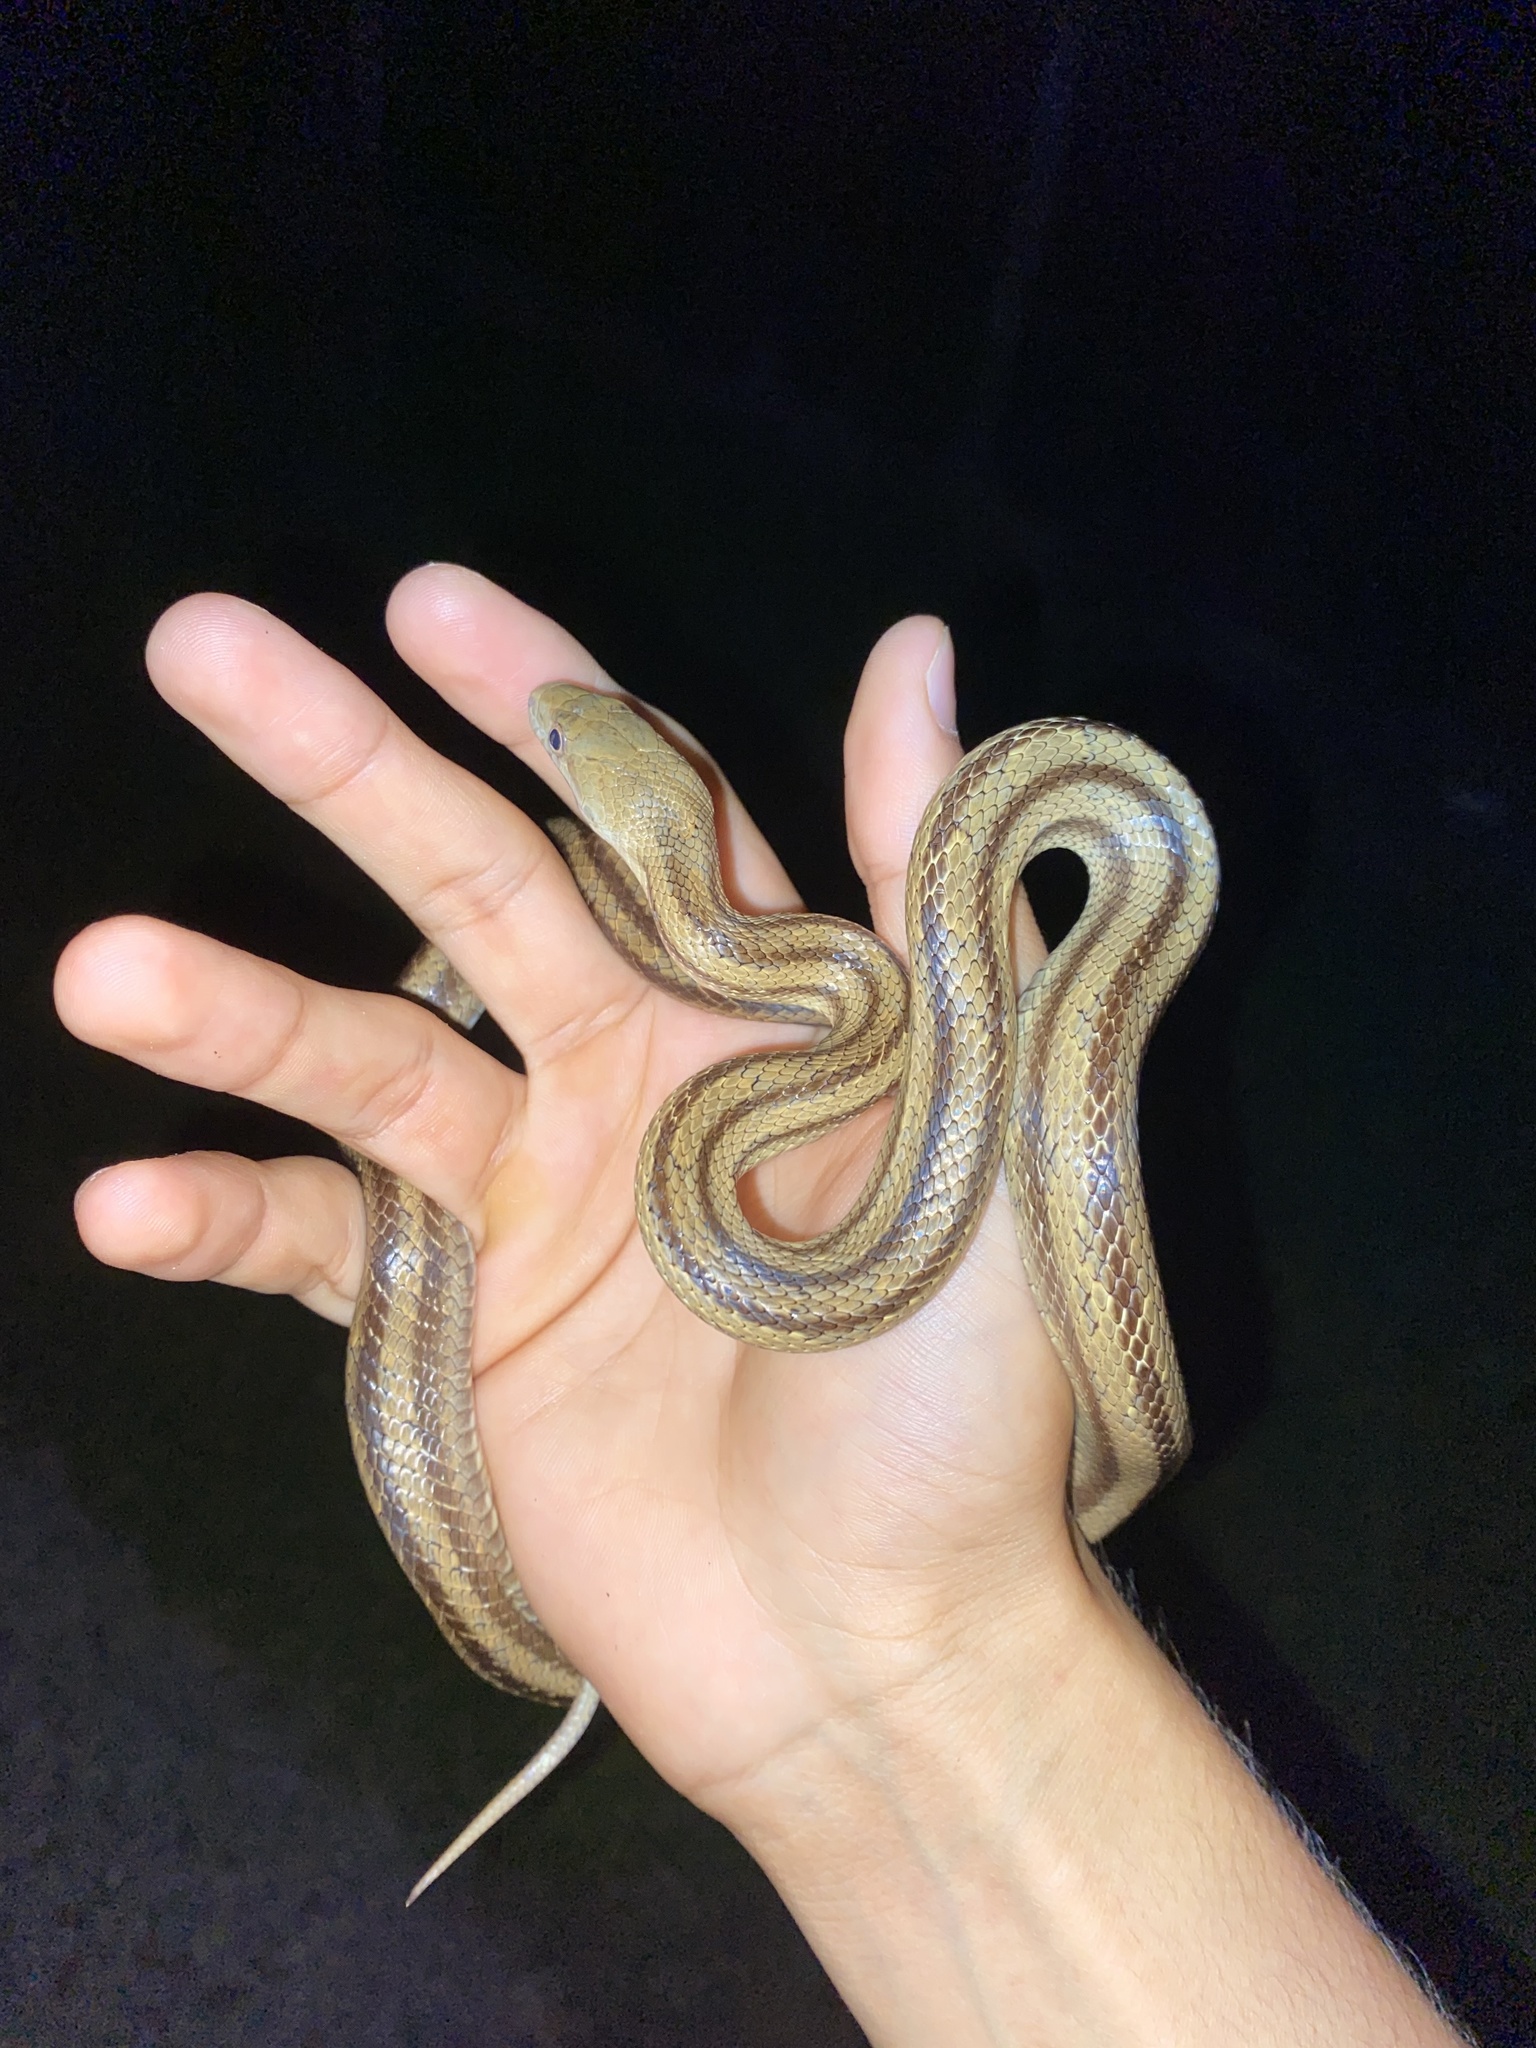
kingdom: Animalia
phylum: Chordata
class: Squamata
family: Colubridae
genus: Pantherophis
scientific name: Pantherophis alleghaniensis
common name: Eastern rat snake
